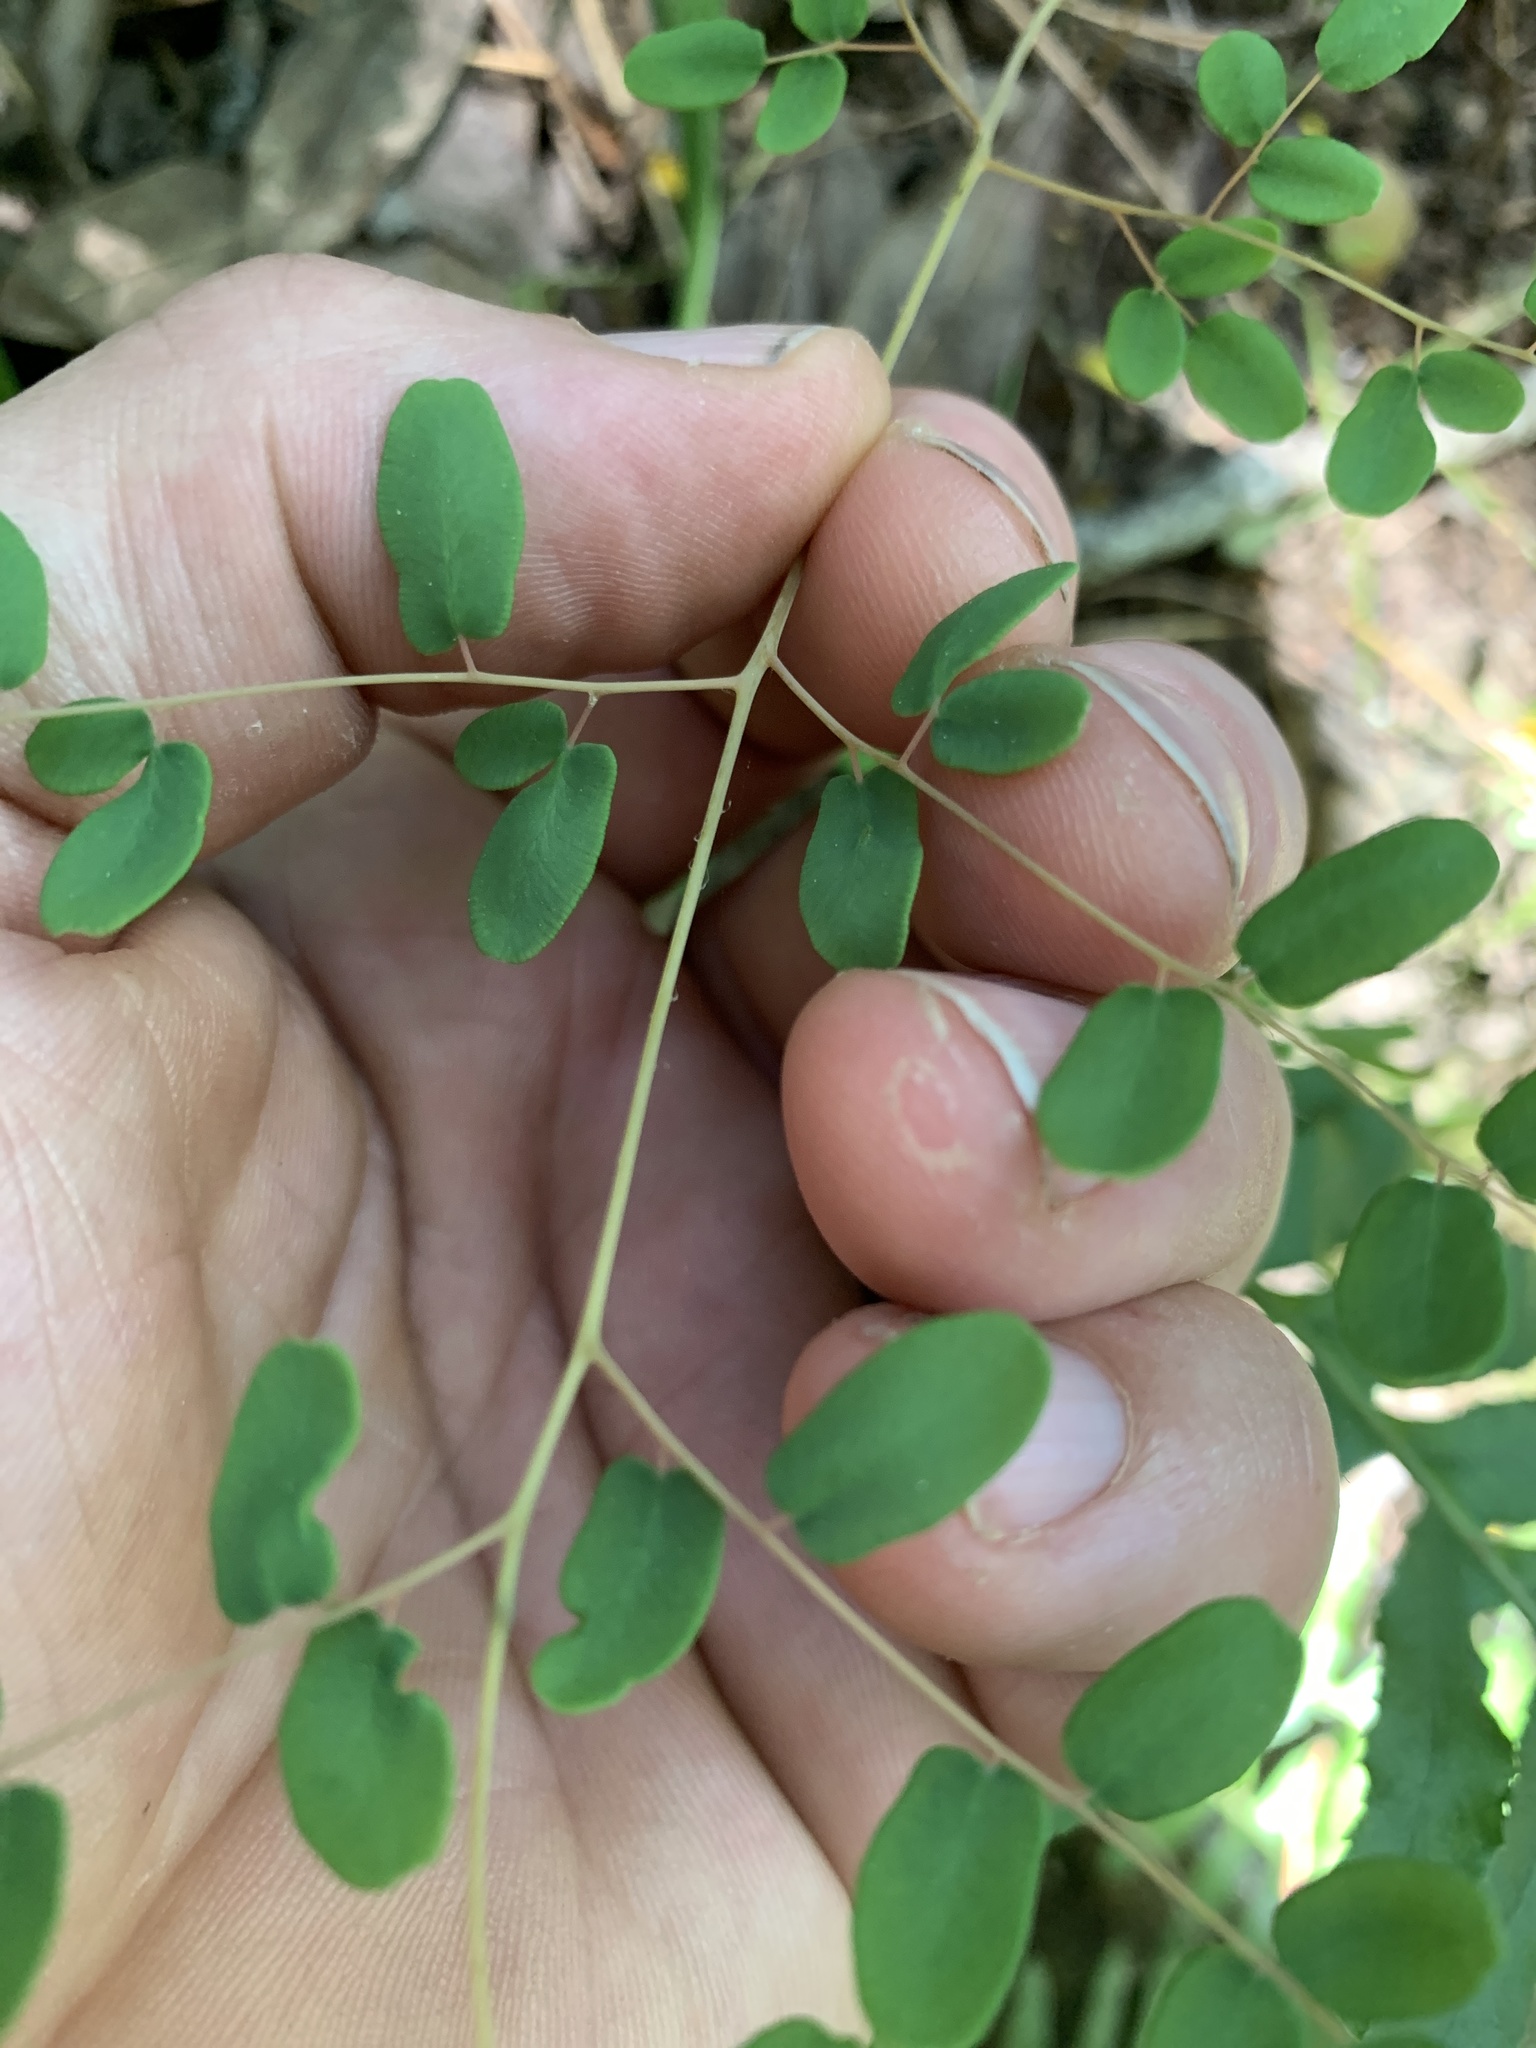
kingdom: Plantae
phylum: Tracheophyta
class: Polypodiopsida
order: Polypodiales
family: Pteridaceae
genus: Pellaea
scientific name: Pellaea andromedifolia
